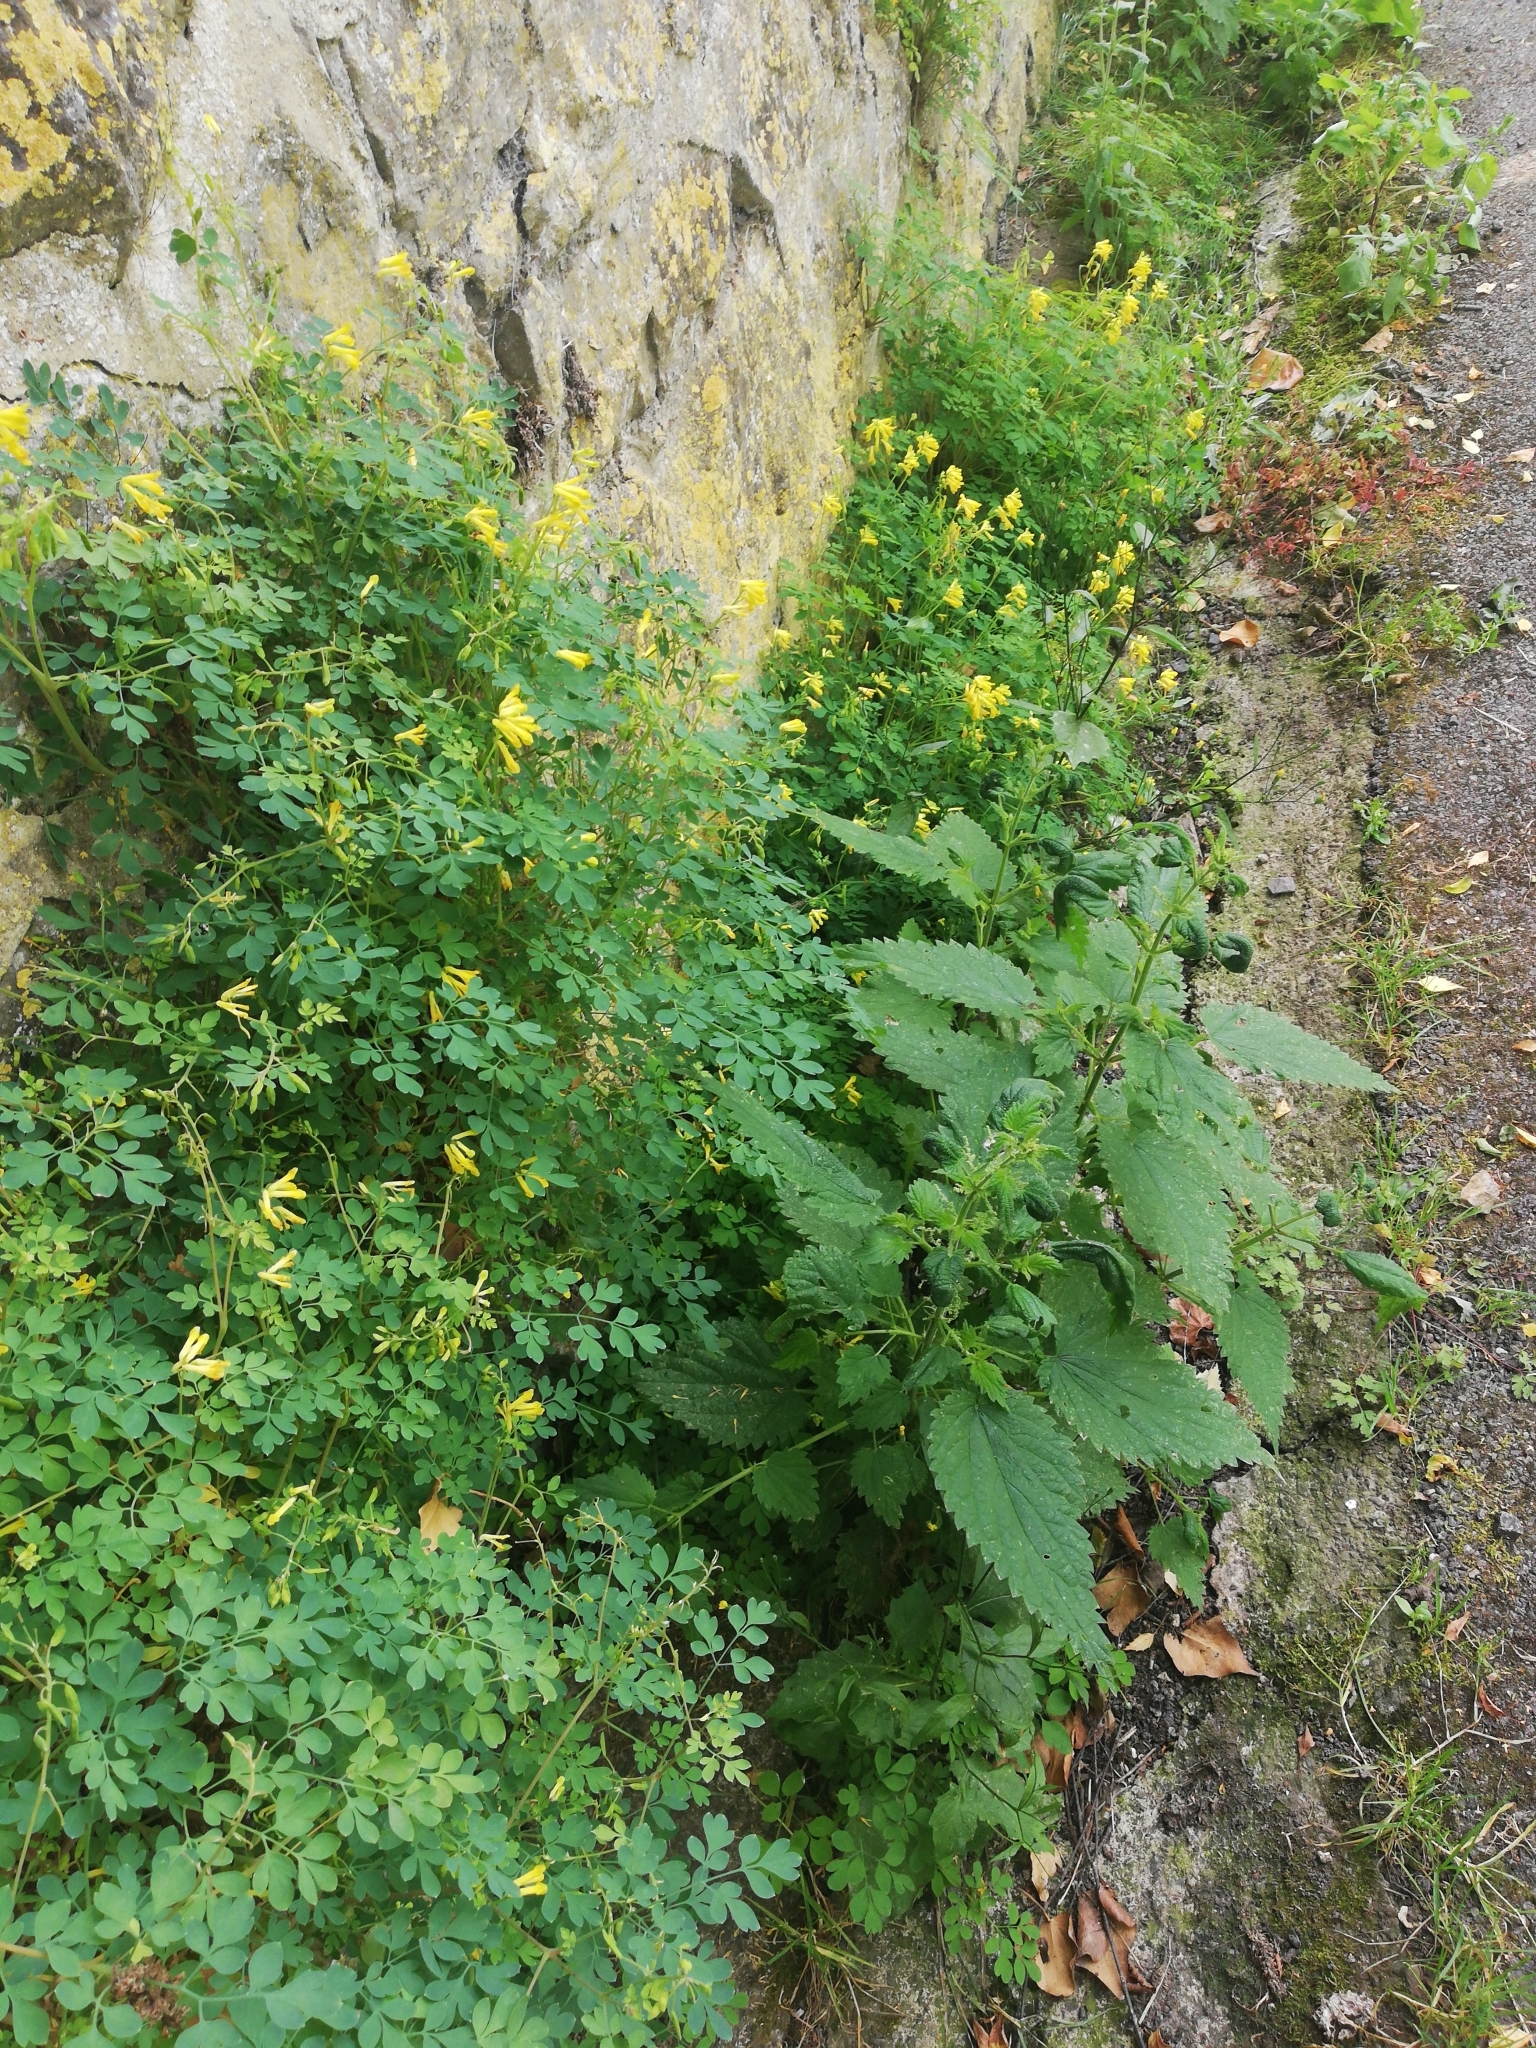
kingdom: Plantae
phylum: Tracheophyta
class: Magnoliopsida
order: Ranunculales
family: Papaveraceae
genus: Pseudofumaria
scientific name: Pseudofumaria lutea
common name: Yellow corydalis
